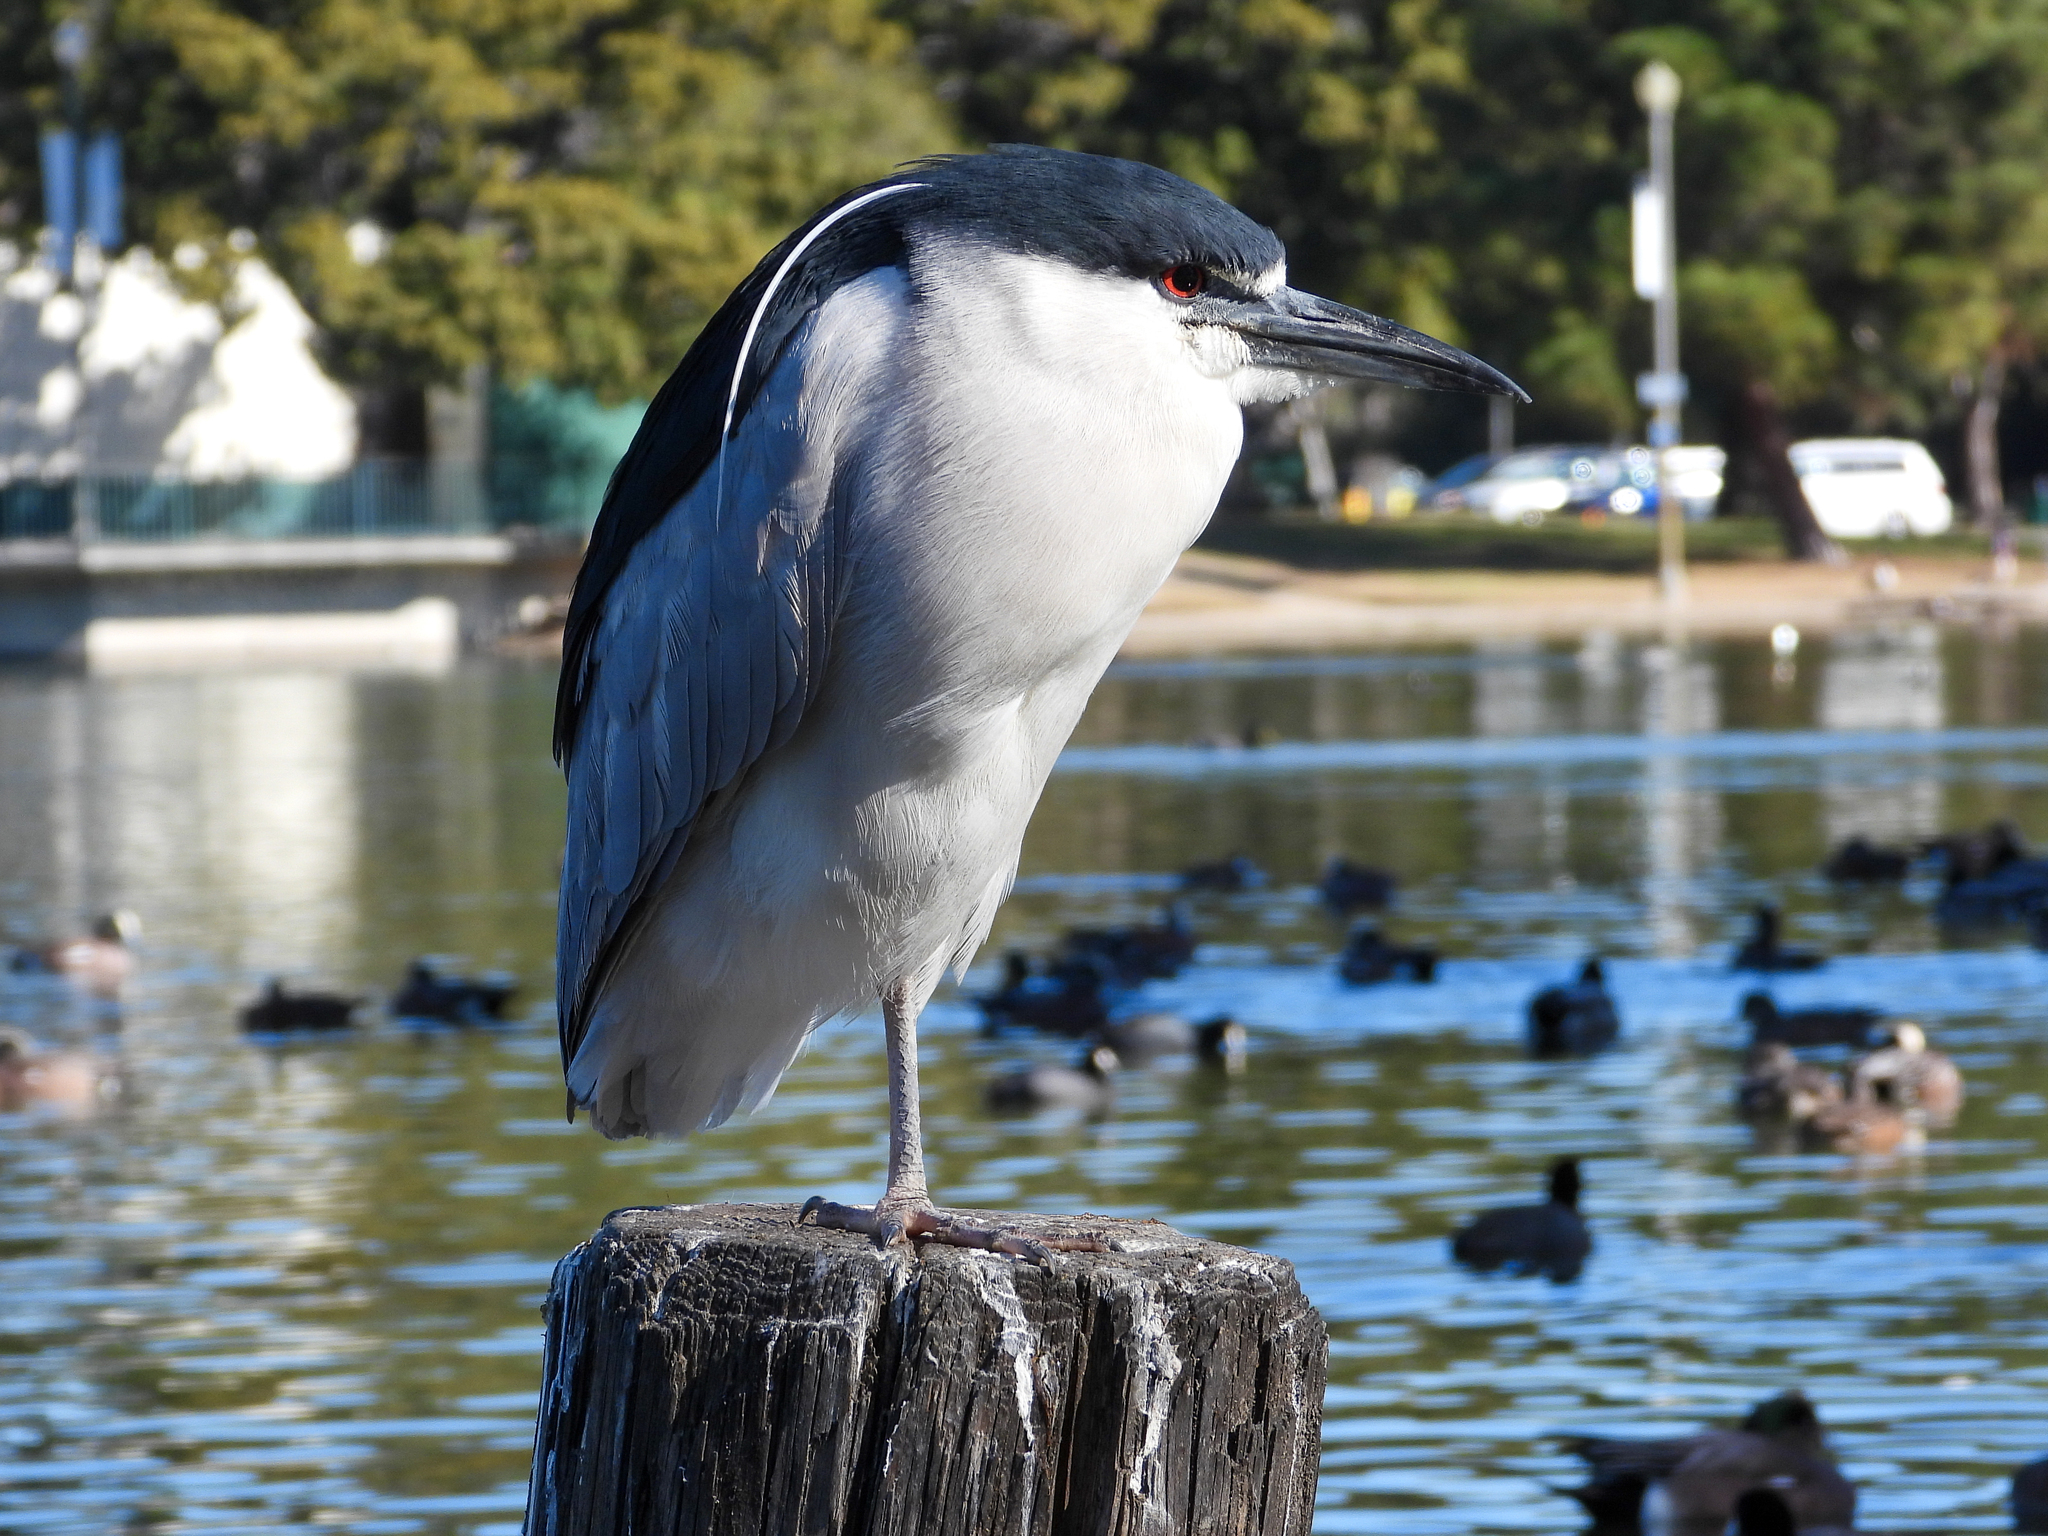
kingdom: Animalia
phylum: Chordata
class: Aves
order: Pelecaniformes
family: Ardeidae
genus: Nycticorax
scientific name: Nycticorax nycticorax
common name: Black-crowned night heron
